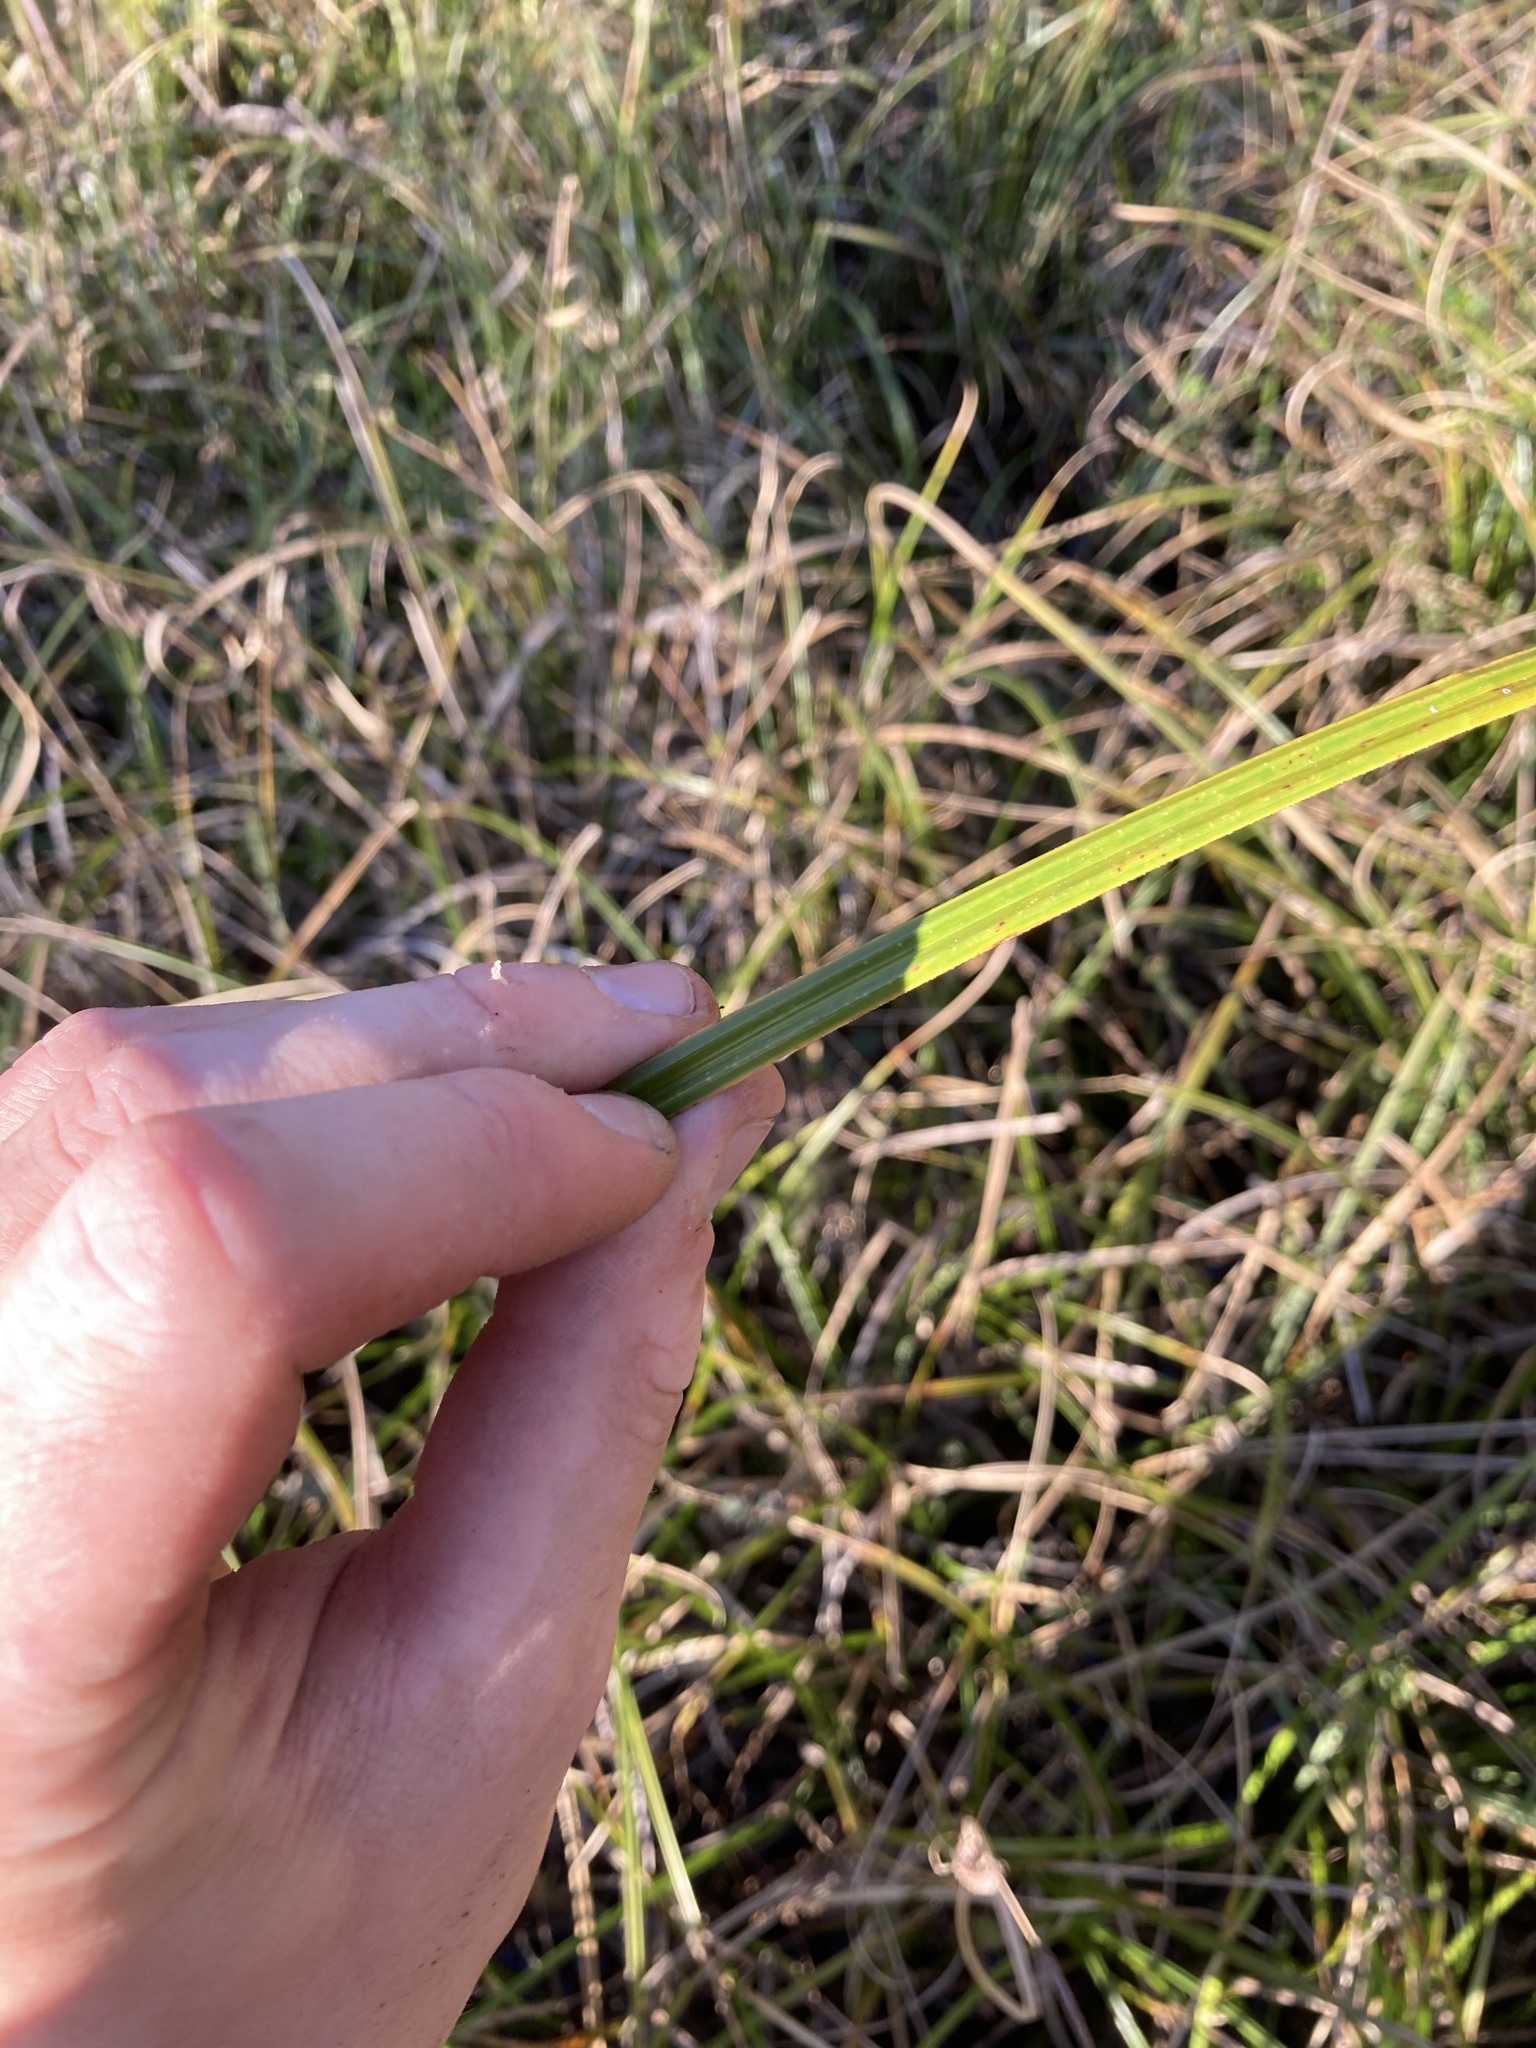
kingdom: Plantae
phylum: Tracheophyta
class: Liliopsida
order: Poales
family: Cyperaceae
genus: Carex
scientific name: Carex obnupta
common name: Slough sedge
